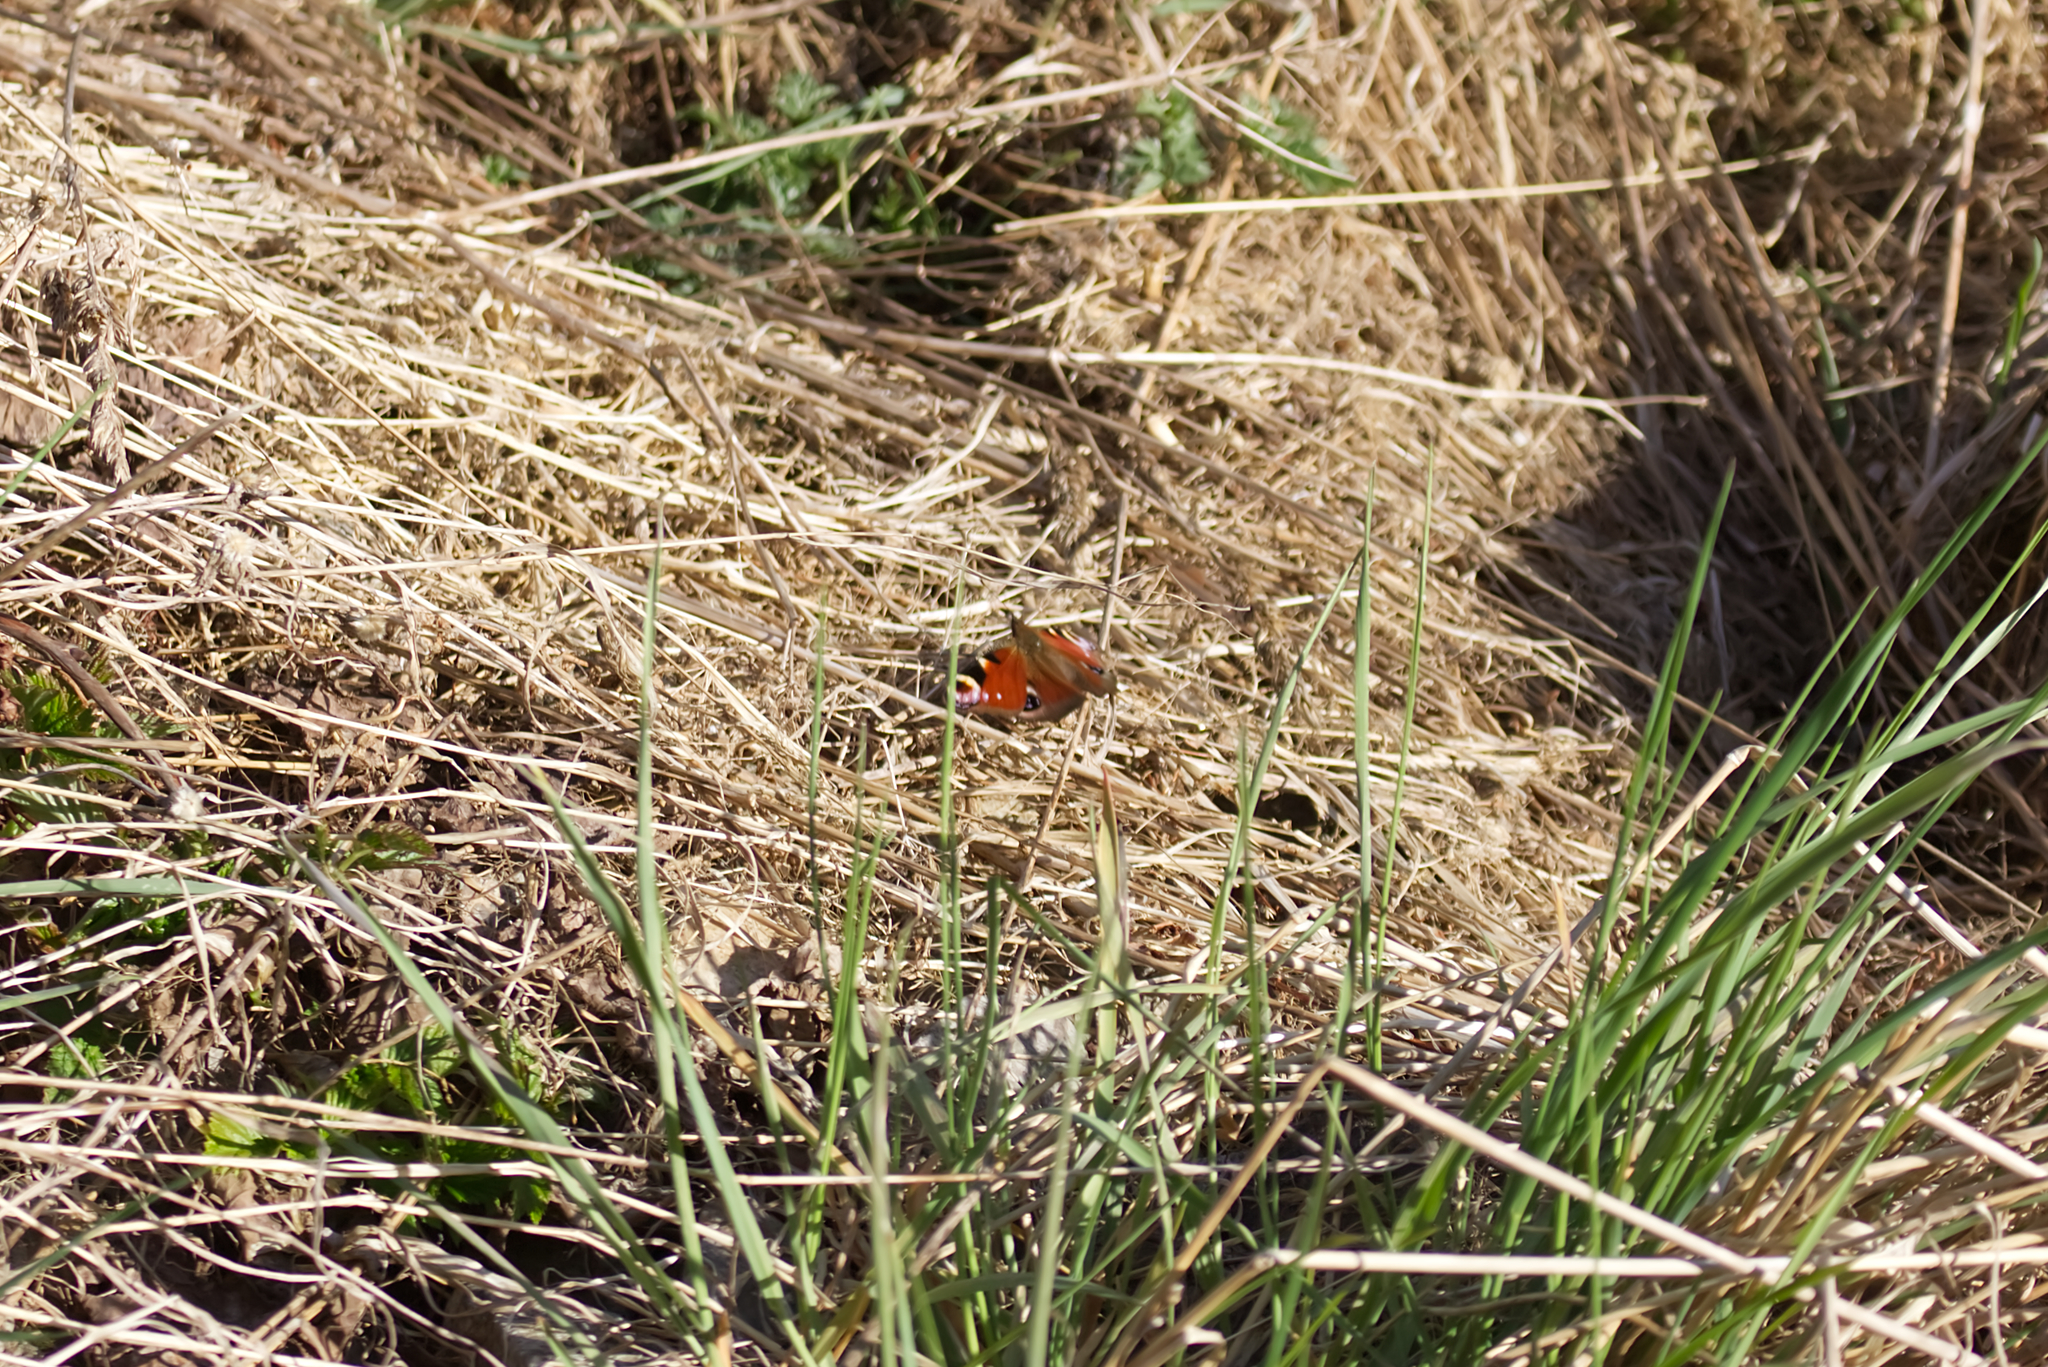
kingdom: Animalia
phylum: Arthropoda
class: Insecta
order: Lepidoptera
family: Nymphalidae
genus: Aglais
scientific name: Aglais io
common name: Peacock
